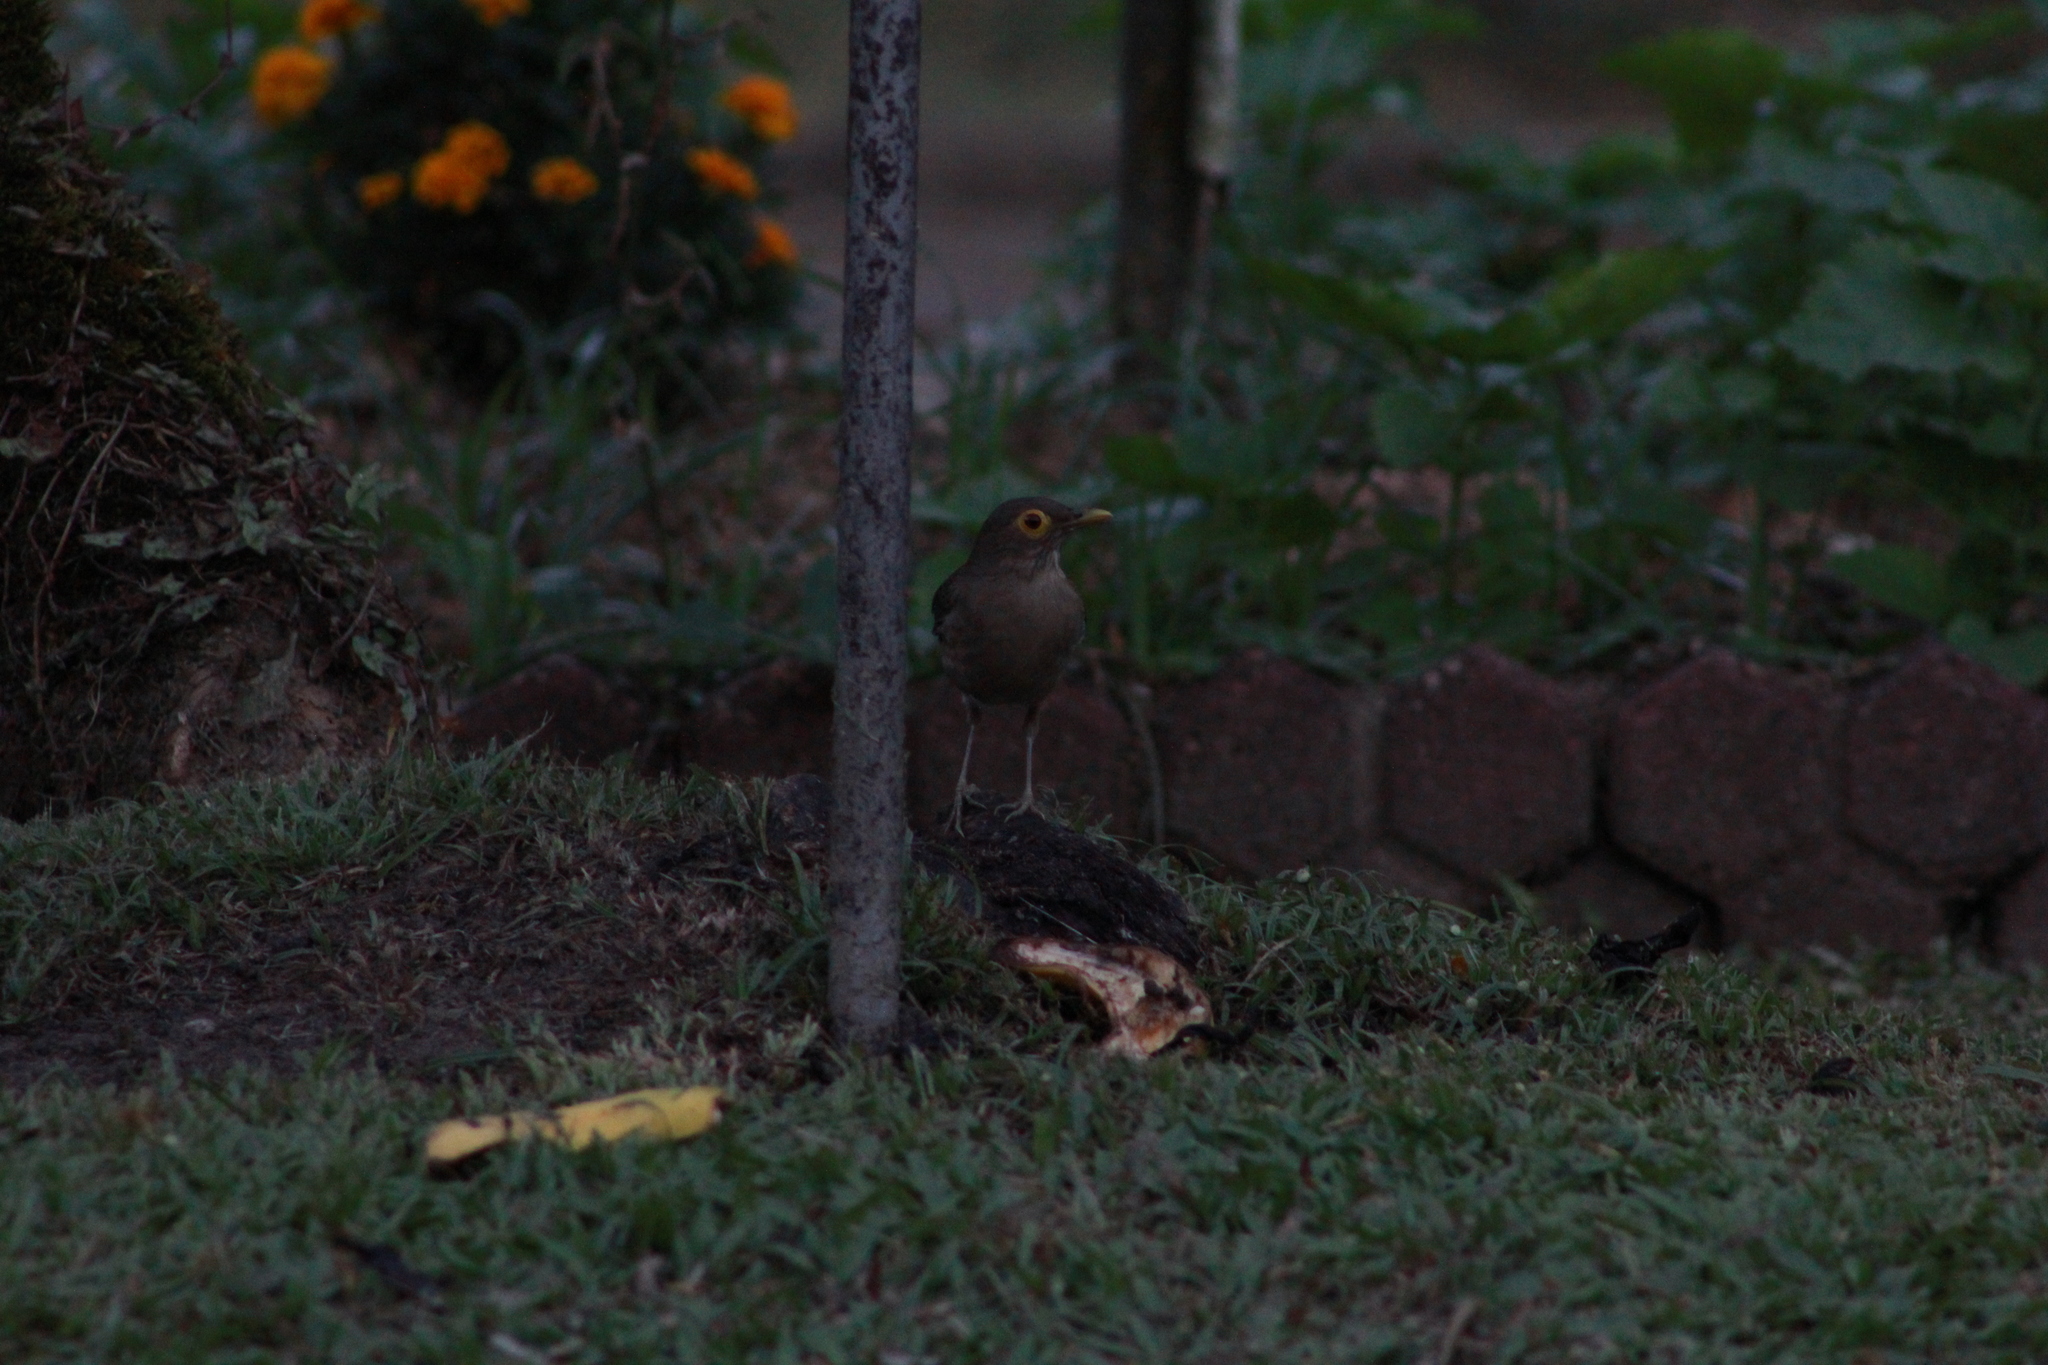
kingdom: Animalia
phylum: Chordata
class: Aves
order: Passeriformes
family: Turdidae
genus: Turdus
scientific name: Turdus nudigenis
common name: Spectacled thrush
